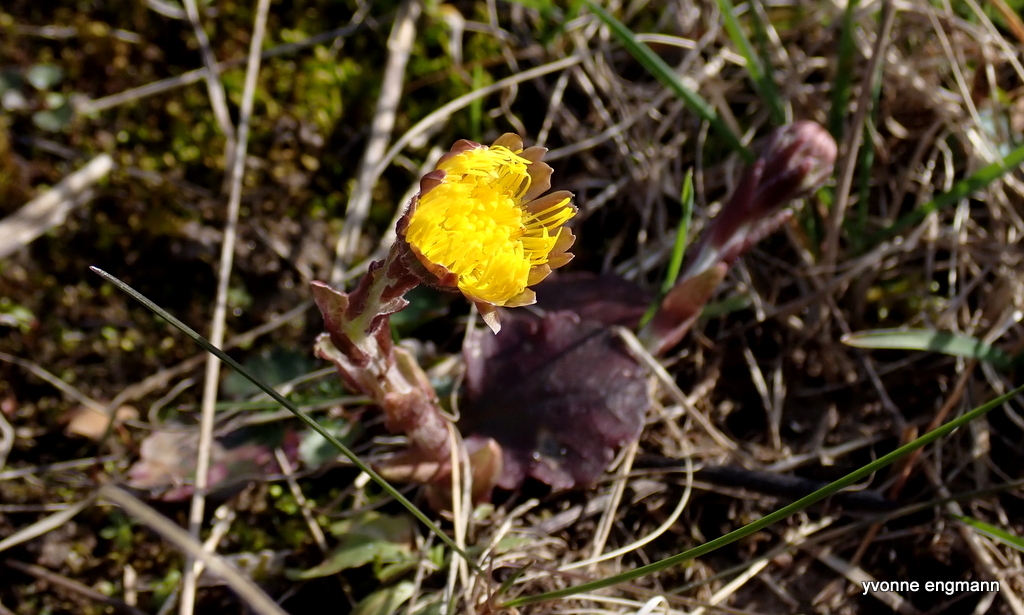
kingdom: Plantae
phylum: Tracheophyta
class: Magnoliopsida
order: Asterales
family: Asteraceae
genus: Tussilago
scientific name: Tussilago farfara
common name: Coltsfoot
